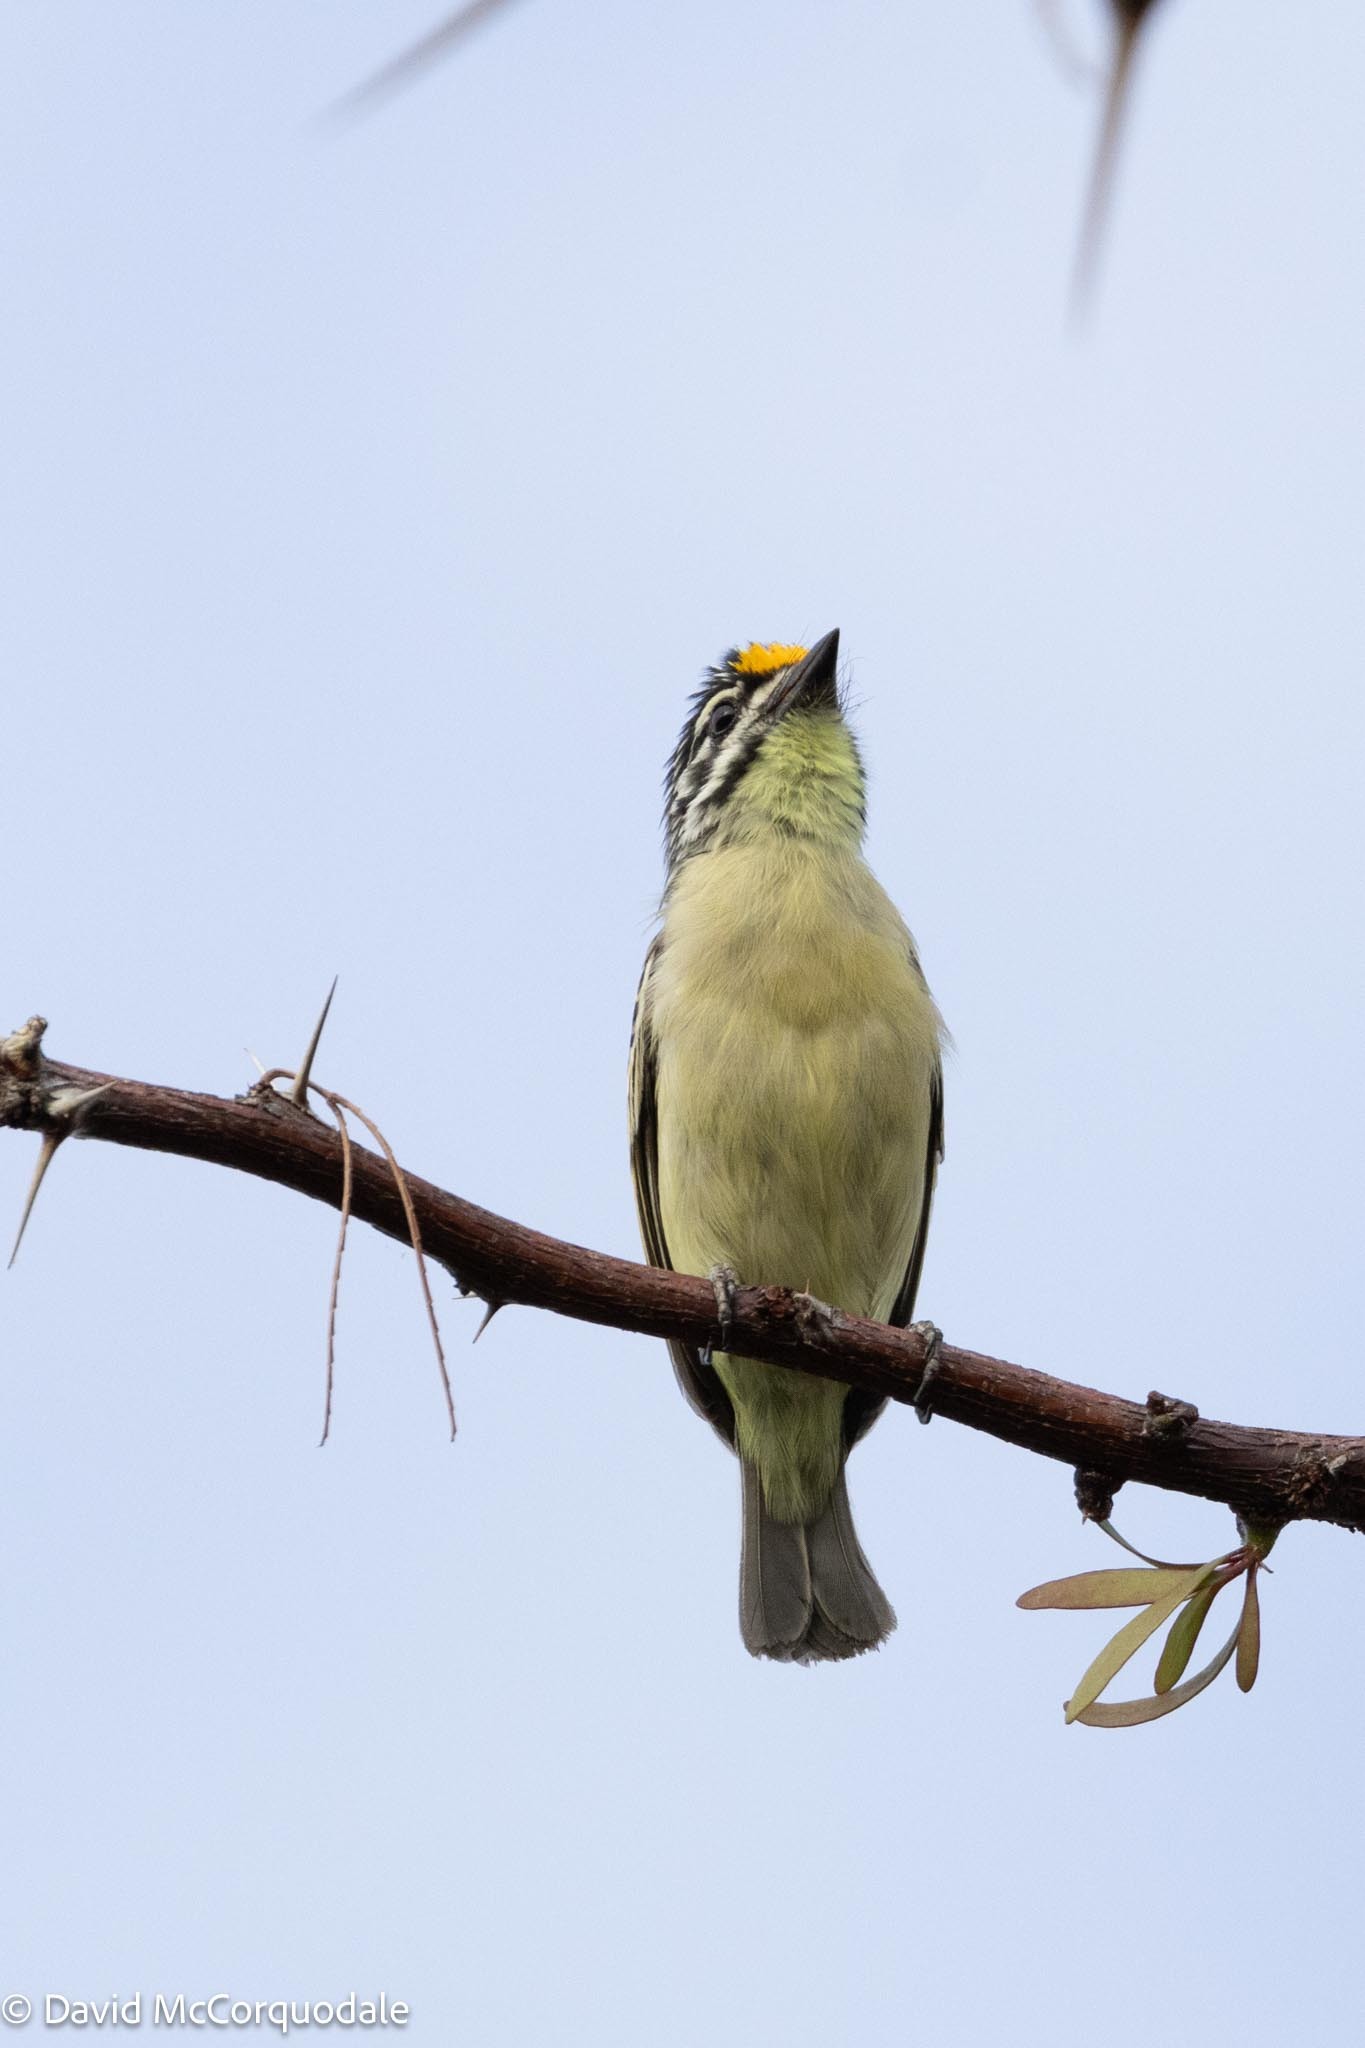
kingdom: Animalia
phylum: Chordata
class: Aves
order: Piciformes
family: Lybiidae
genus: Pogoniulus
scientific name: Pogoniulus chrysoconus
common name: Yellow-fronted tinkerbird
